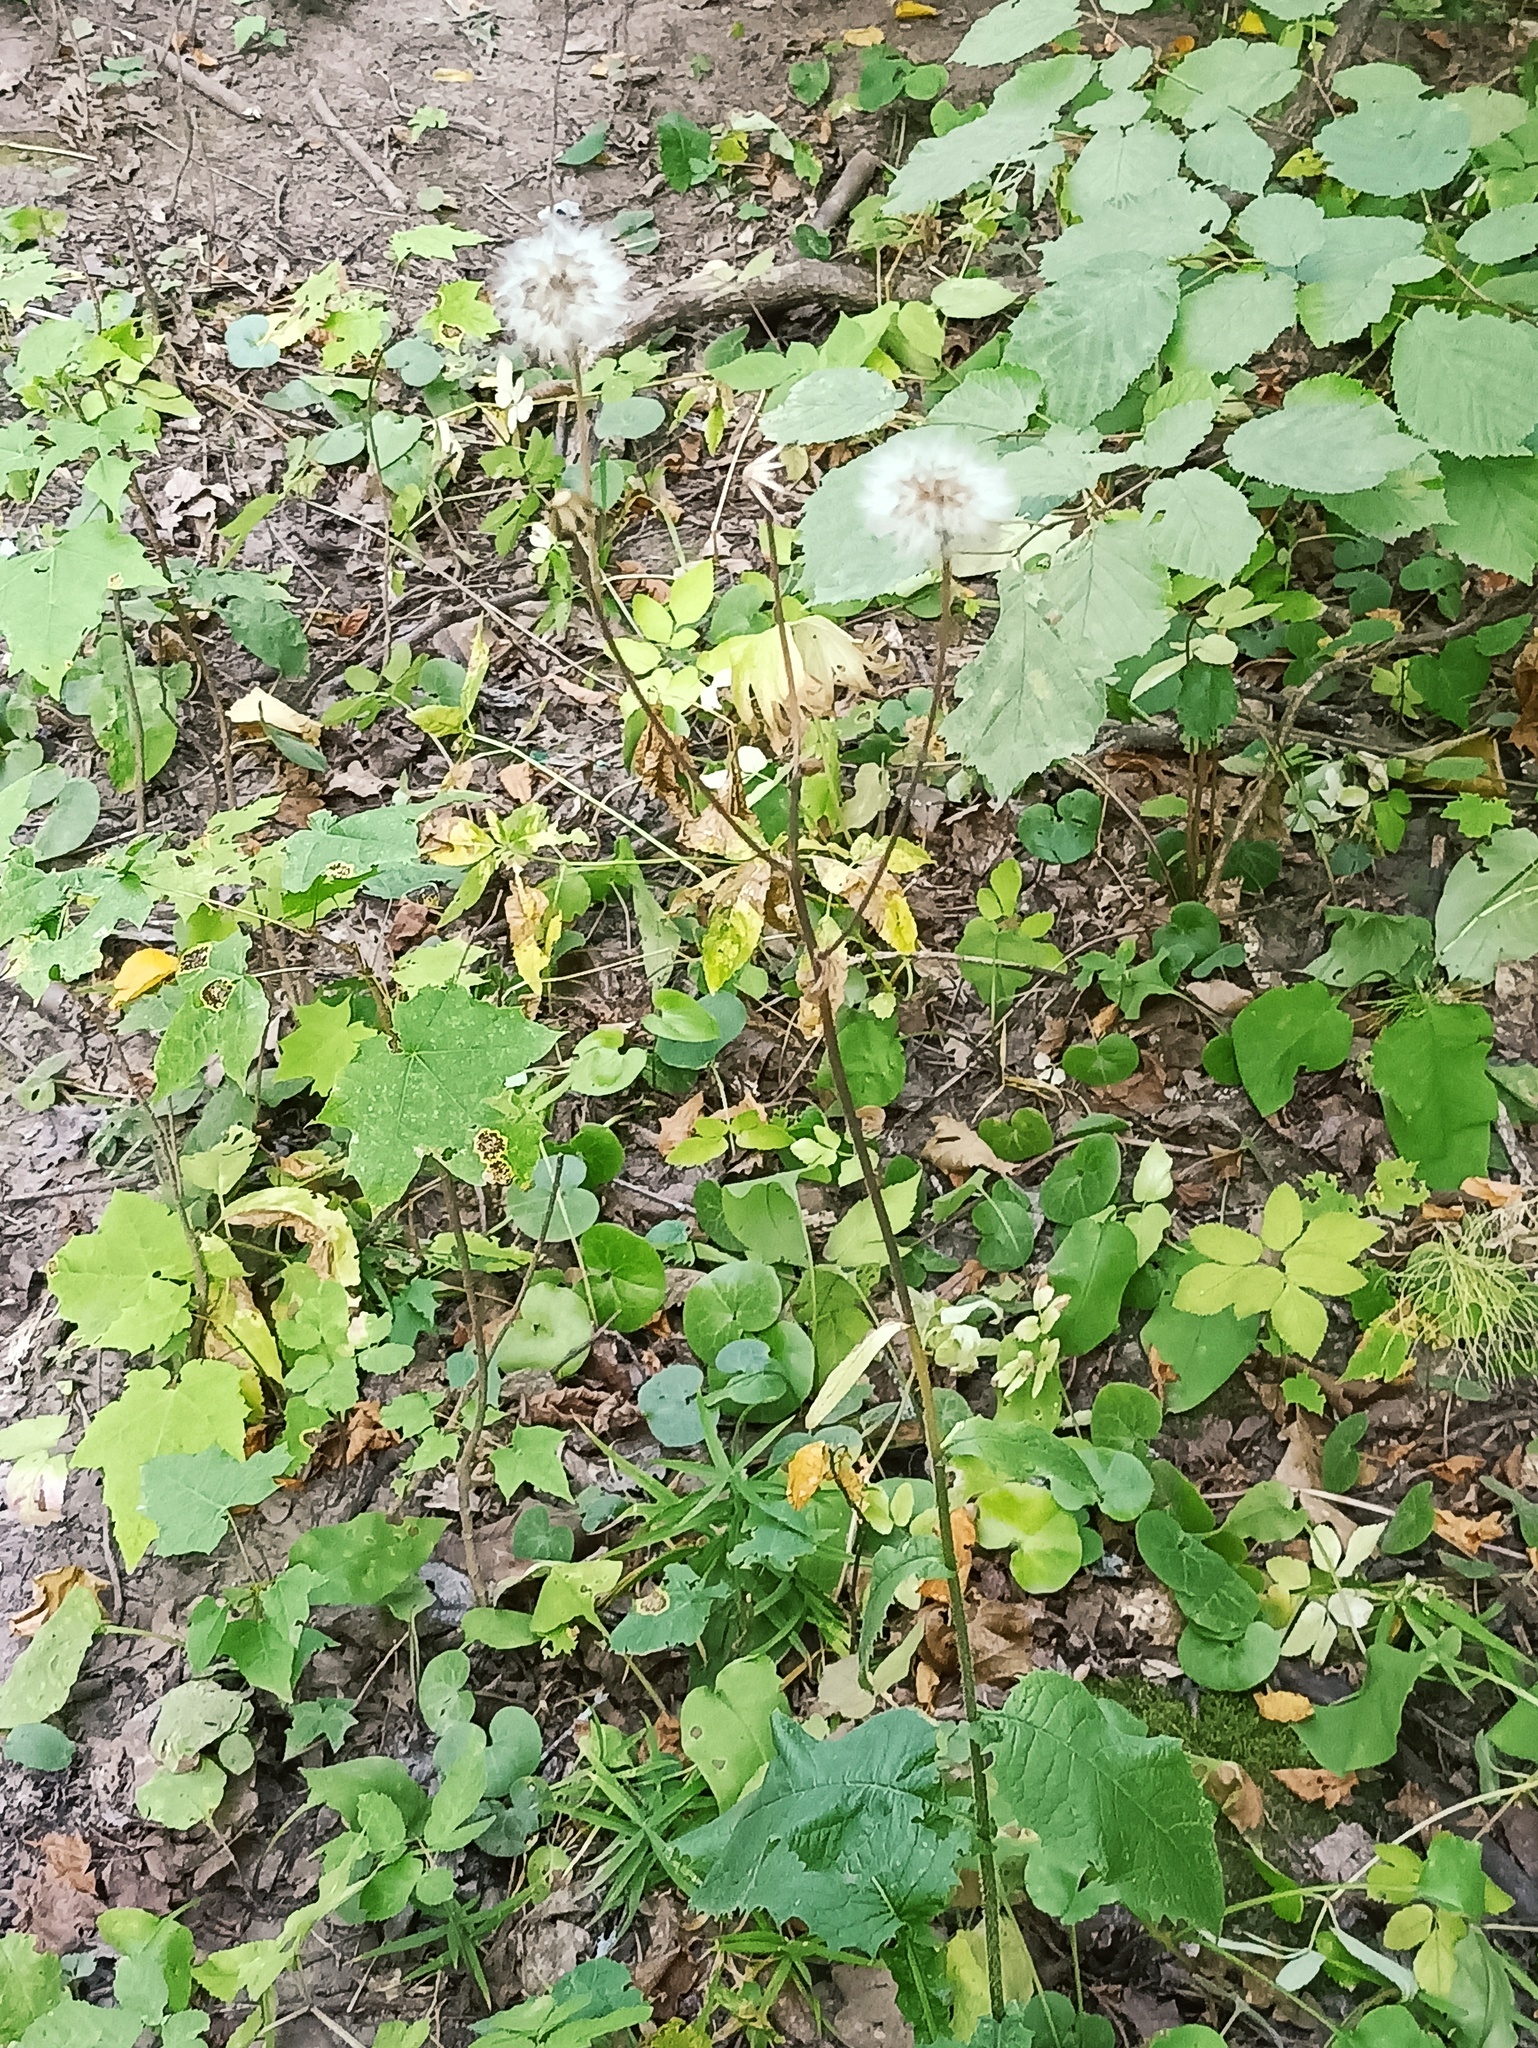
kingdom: Plantae
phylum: Tracheophyta
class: Magnoliopsida
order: Asterales
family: Asteraceae
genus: Crepis
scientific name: Crepis sibirica
